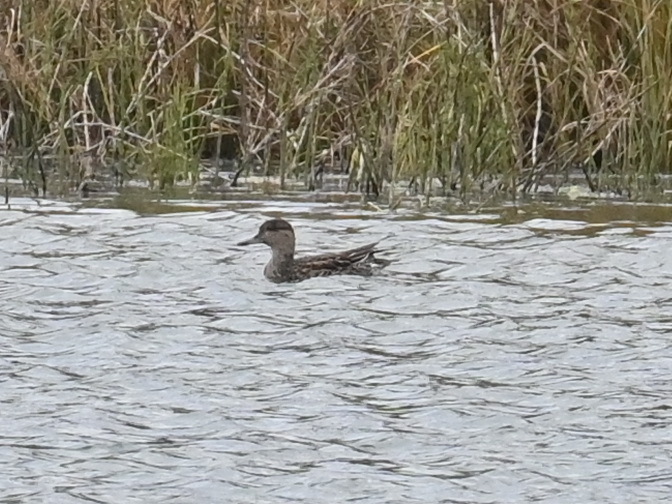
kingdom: Animalia
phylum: Chordata
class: Aves
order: Anseriformes
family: Anatidae
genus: Anas
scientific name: Anas crecca
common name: Eurasian teal
